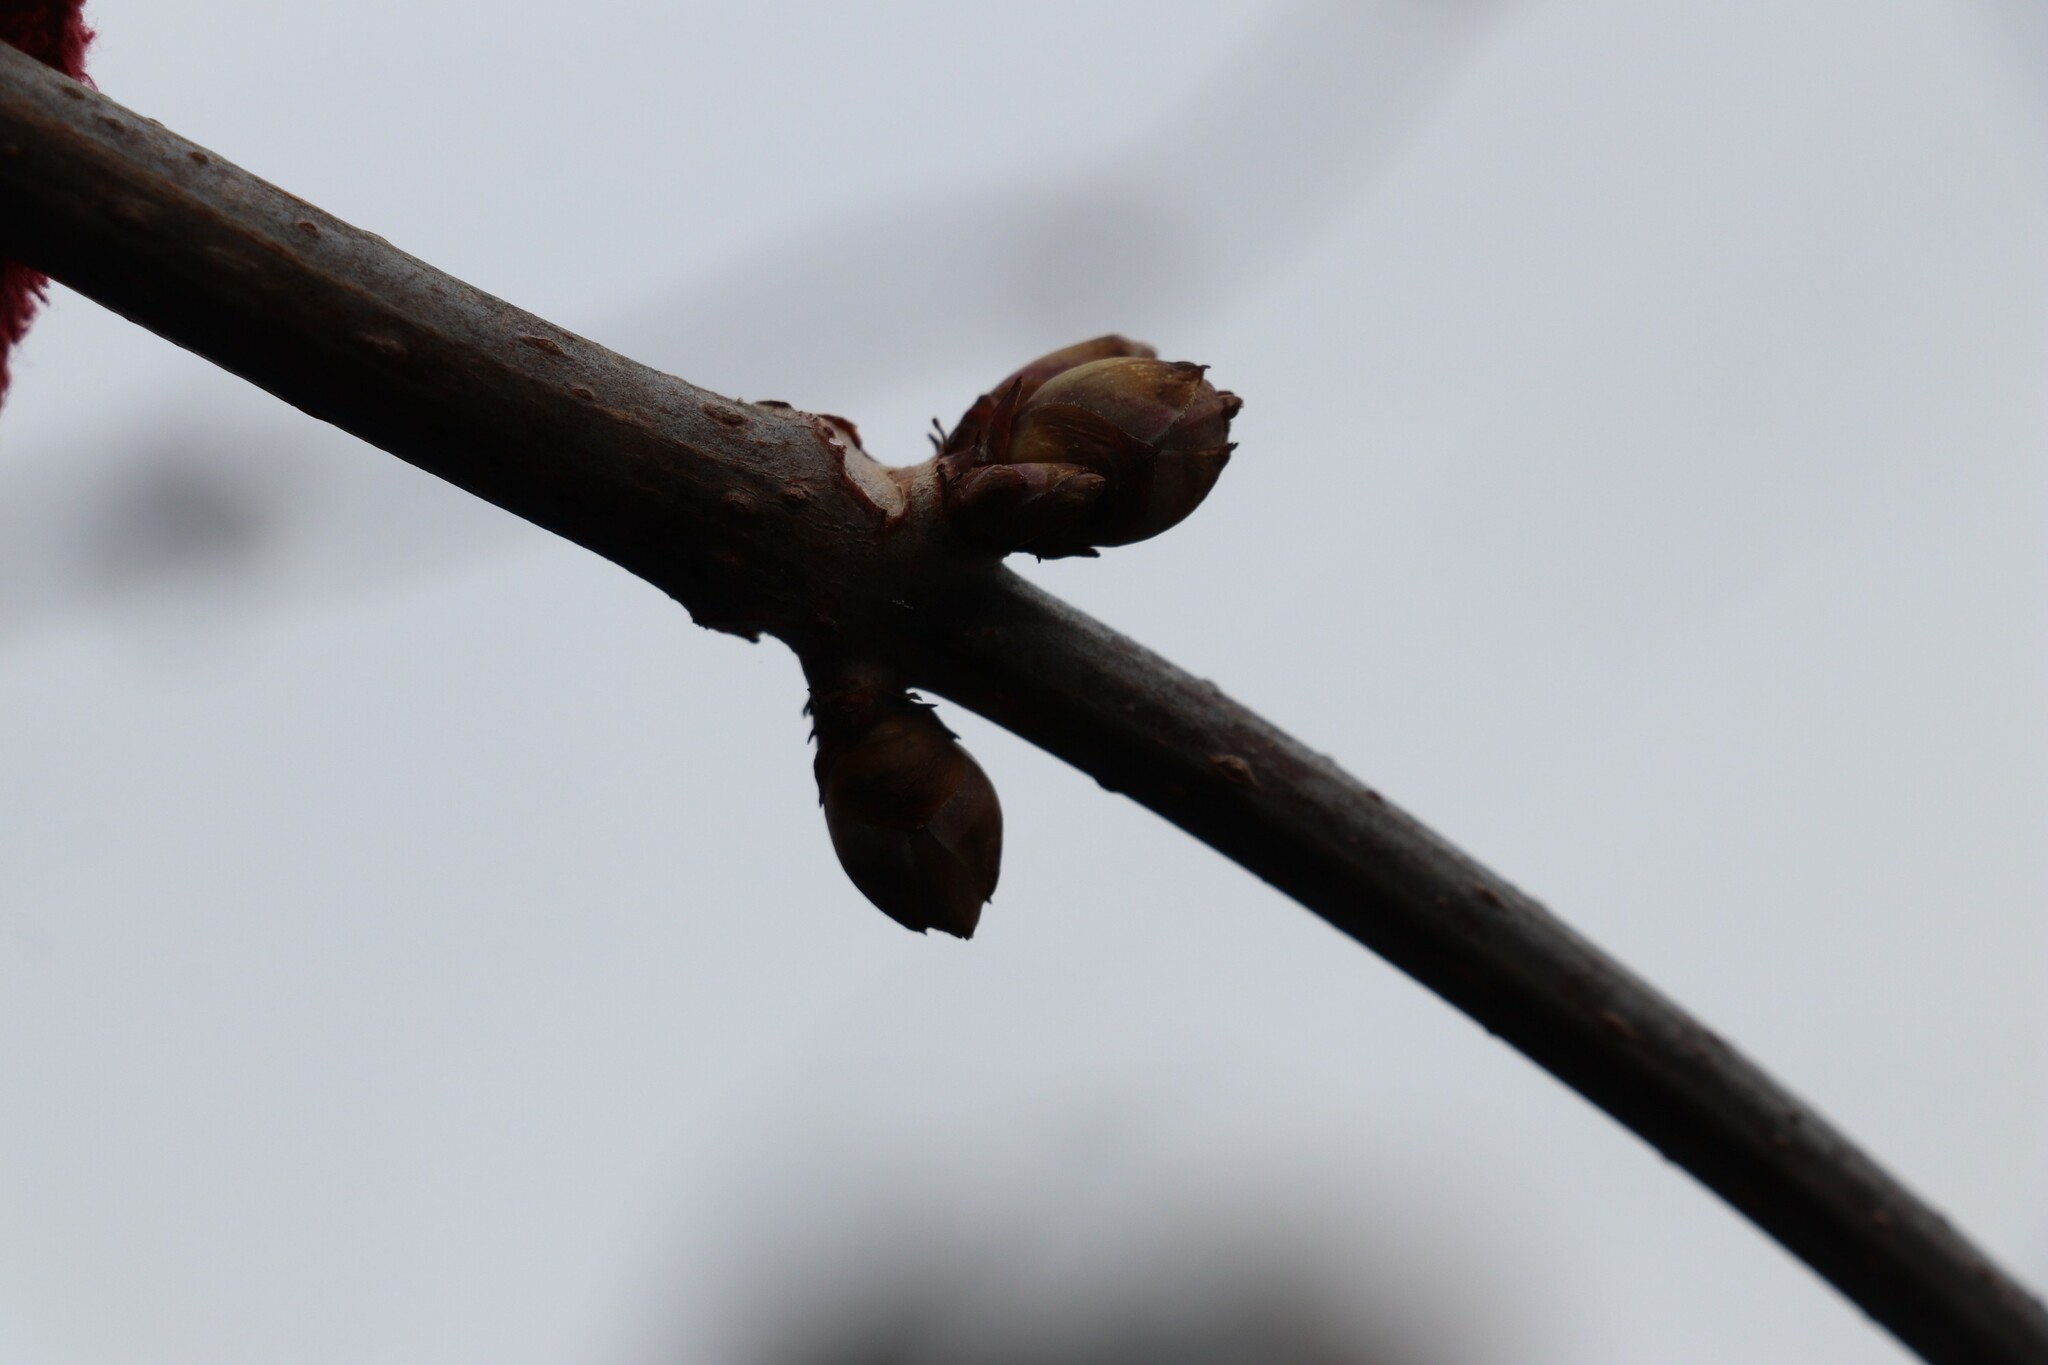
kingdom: Plantae
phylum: Tracheophyta
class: Magnoliopsida
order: Dipsacales
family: Viburnaceae
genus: Sambucus
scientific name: Sambucus sibirica
